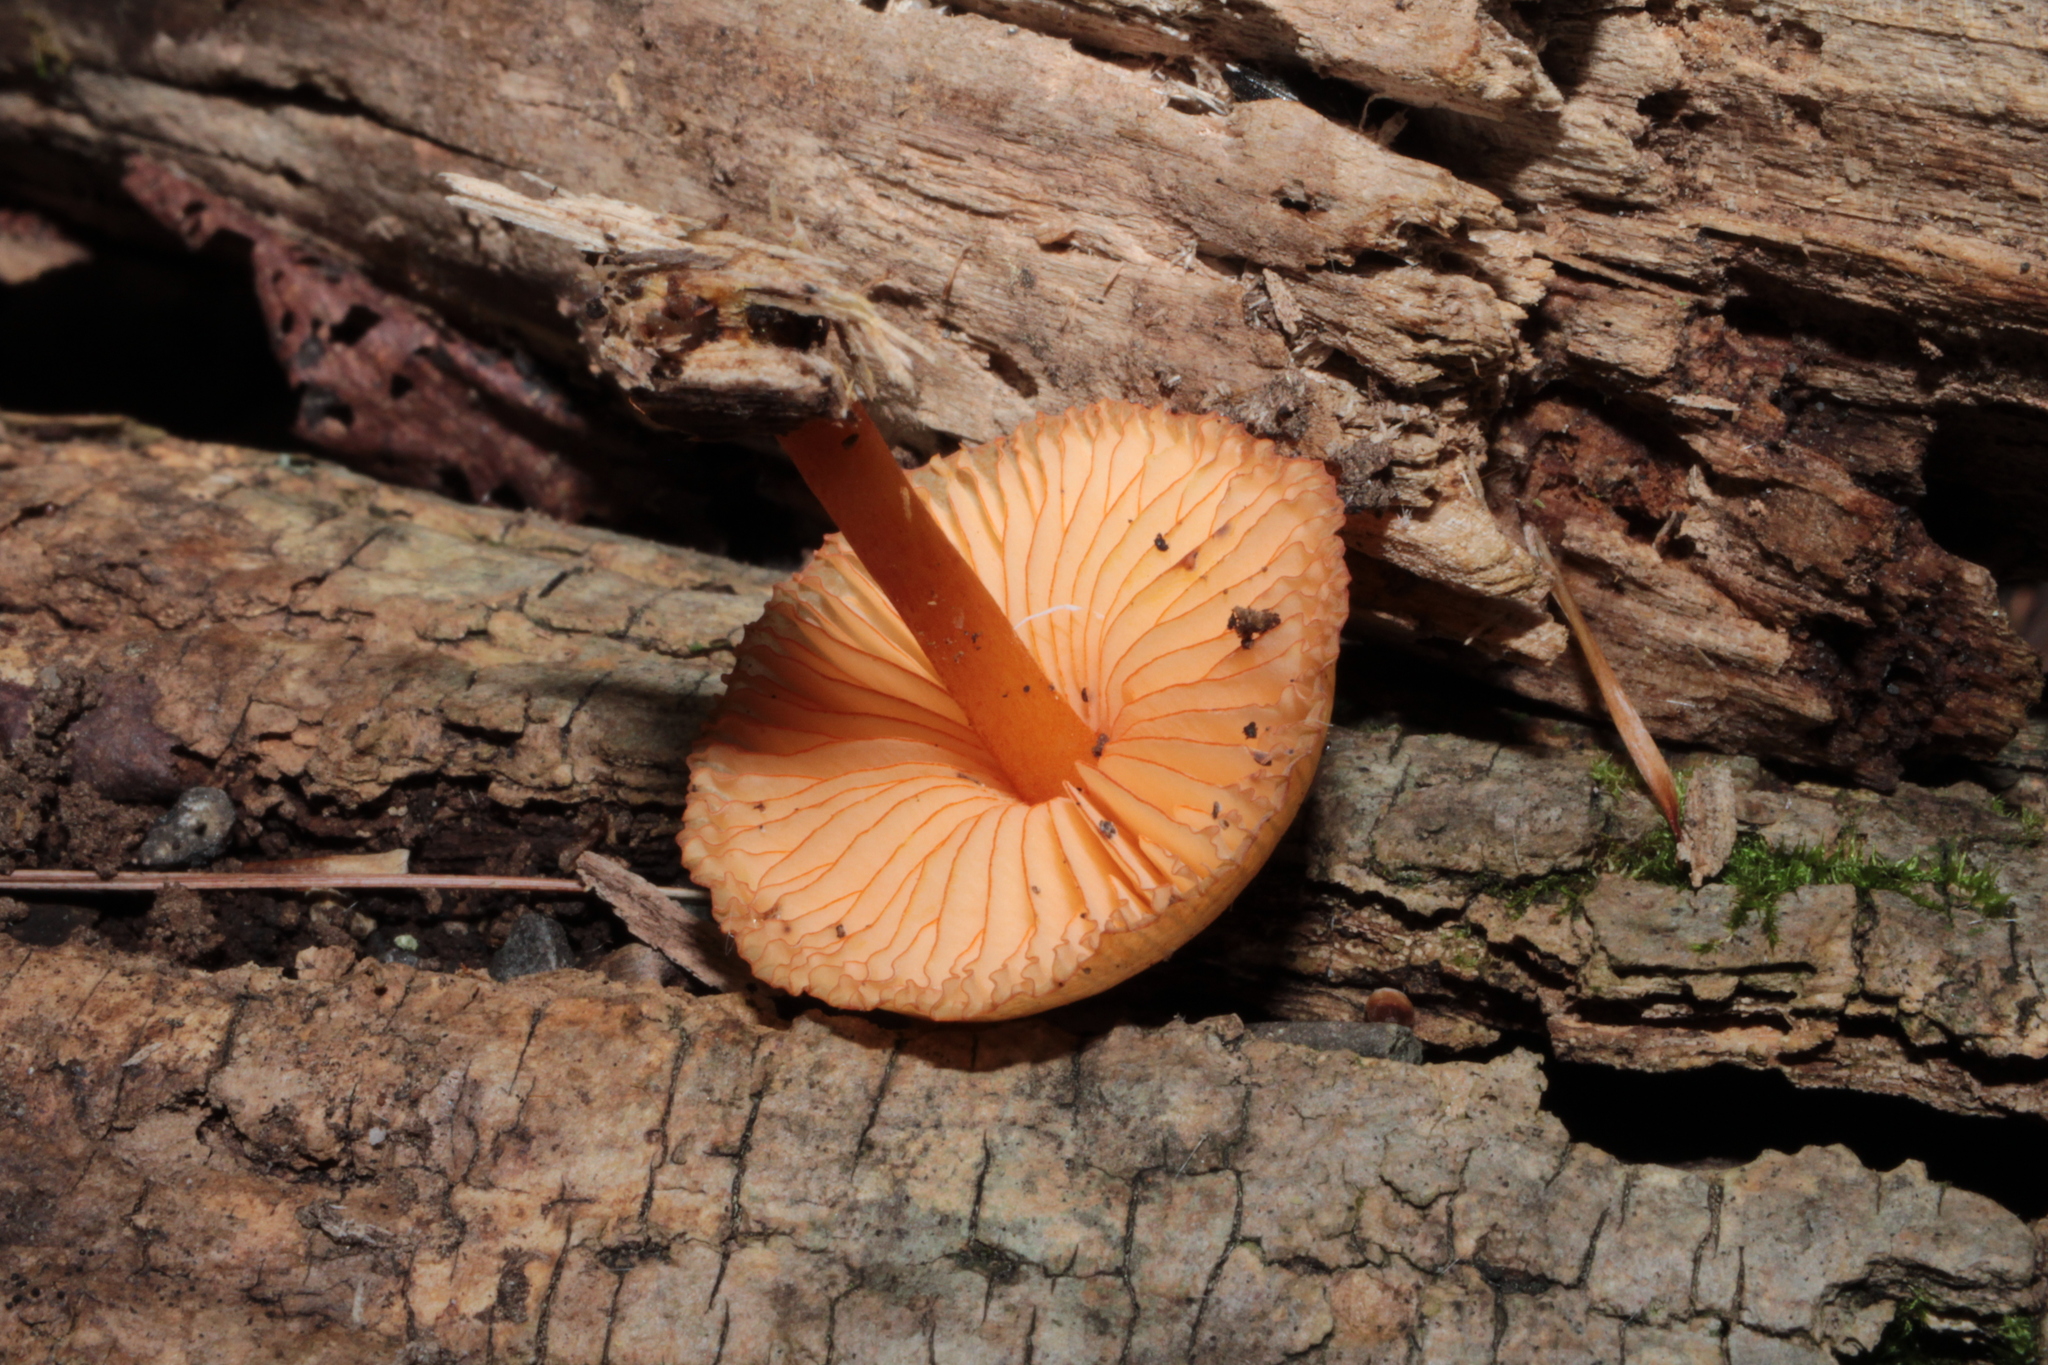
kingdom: Fungi
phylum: Basidiomycota
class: Agaricomycetes
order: Agaricales
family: Mycenaceae
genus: Mycena
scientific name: Mycena leaiana
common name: Orange mycena
